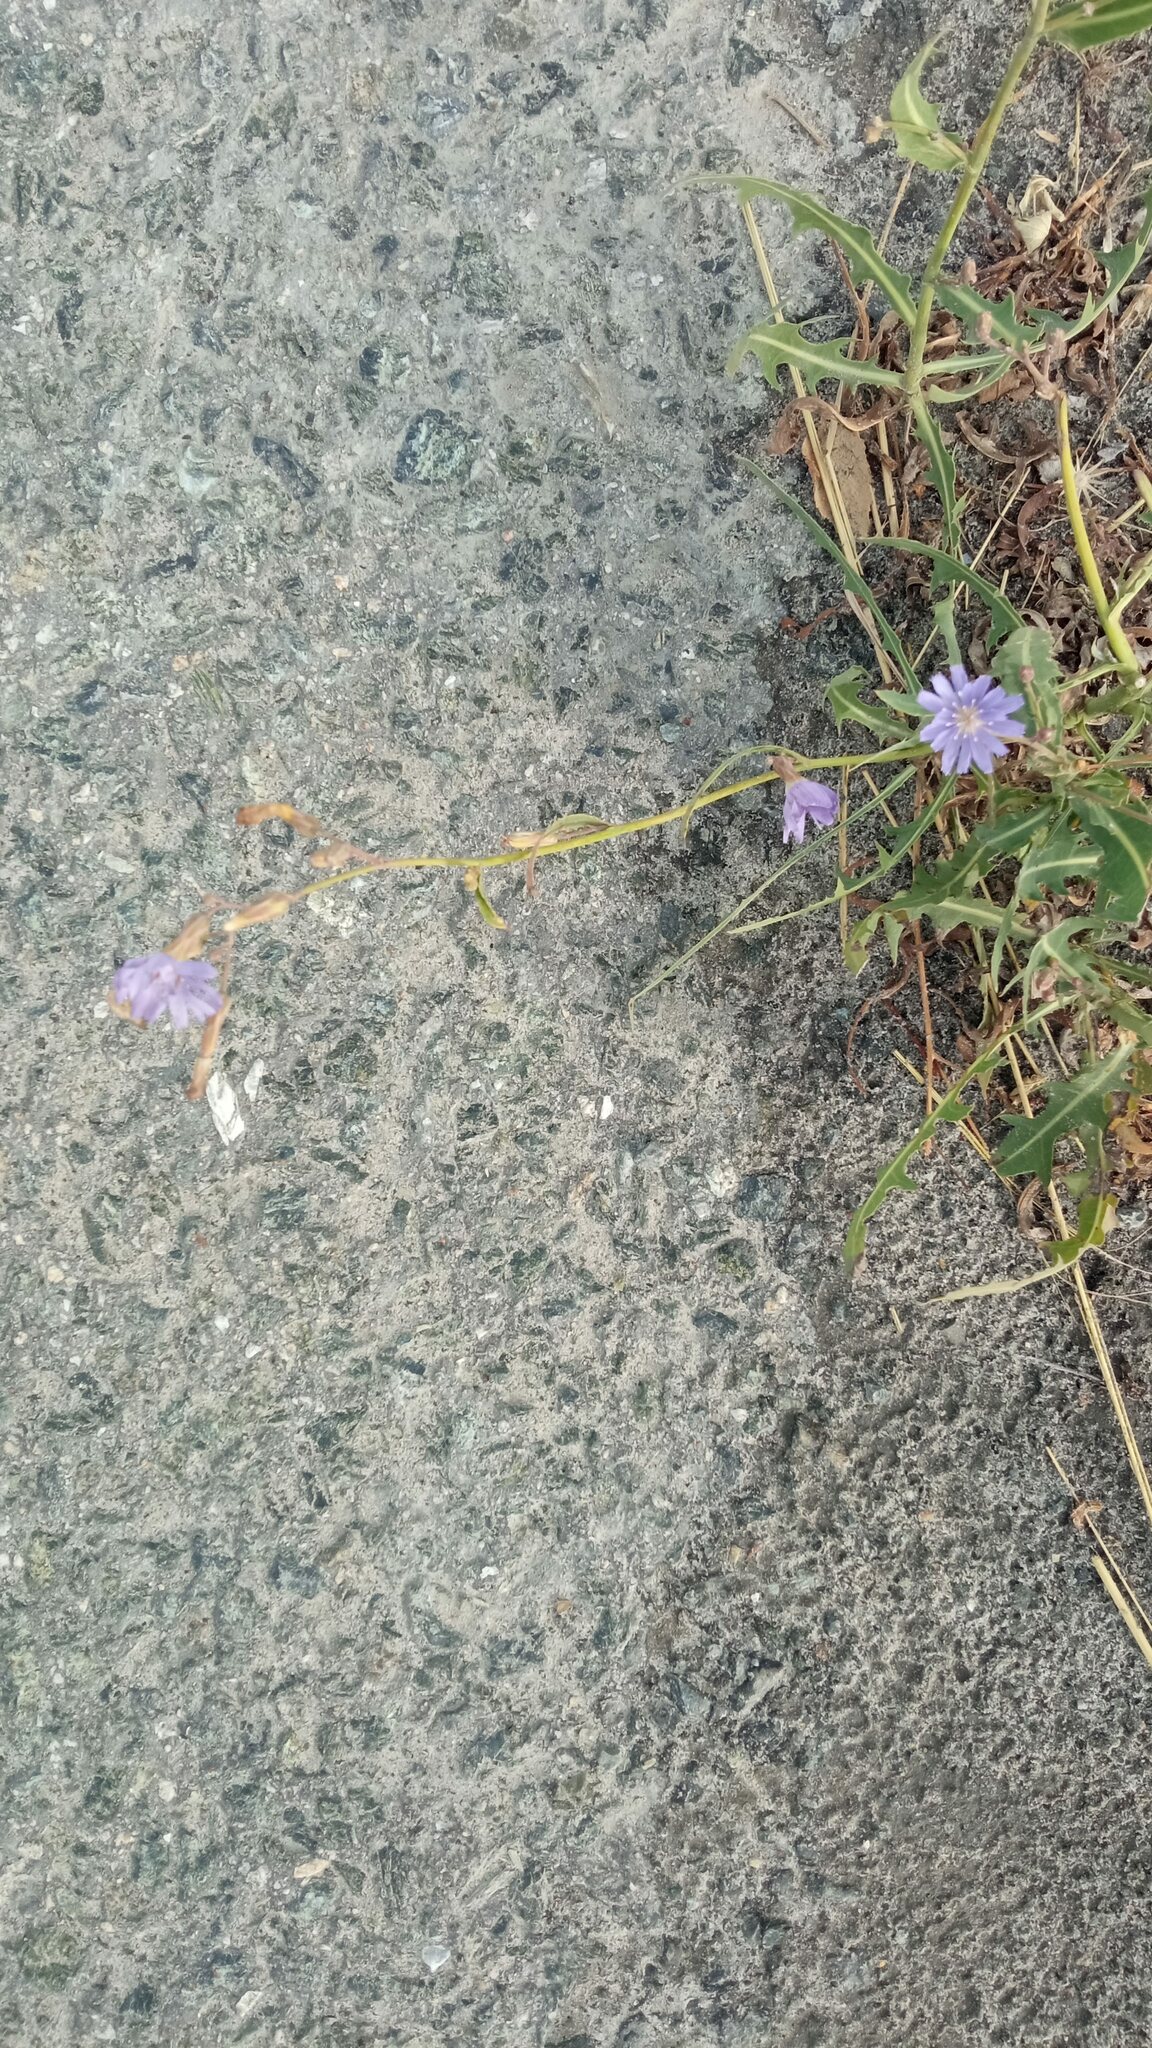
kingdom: Plantae
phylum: Tracheophyta
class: Magnoliopsida
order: Asterales
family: Asteraceae
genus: Lactuca
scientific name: Lactuca tatarica
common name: Blue lettuce
